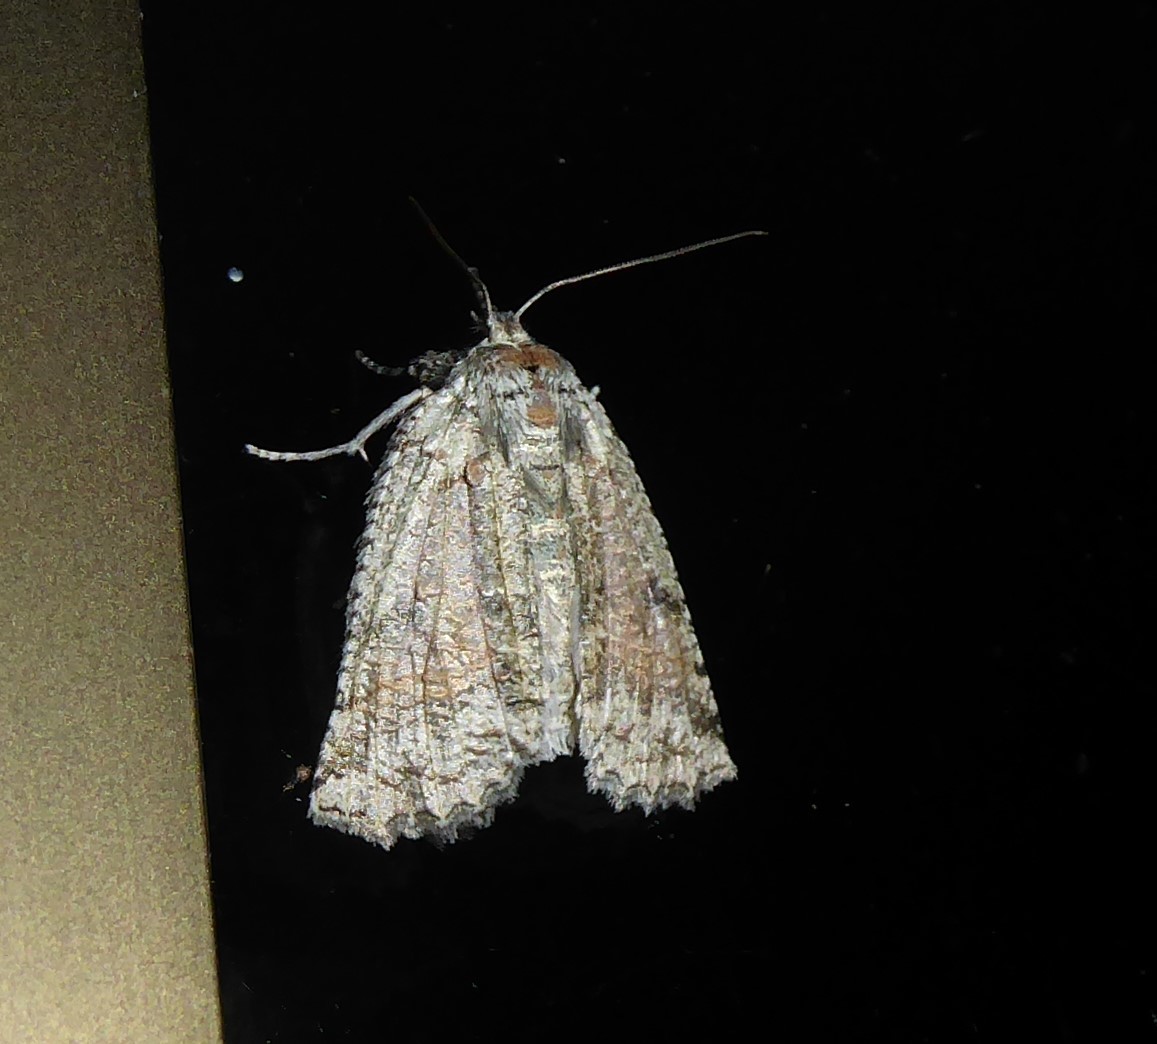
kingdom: Animalia
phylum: Arthropoda
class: Insecta
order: Lepidoptera
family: Geometridae
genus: Declana
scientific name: Declana floccosa
